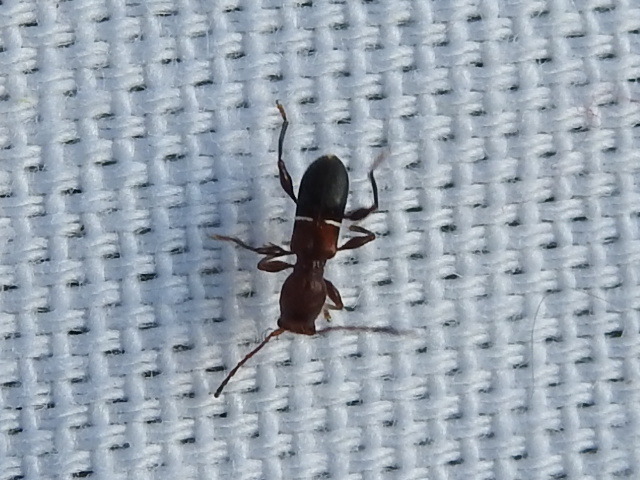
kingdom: Animalia
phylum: Arthropoda
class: Insecta
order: Coleoptera
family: Cerambycidae
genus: Euderces
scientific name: Euderces reichei
